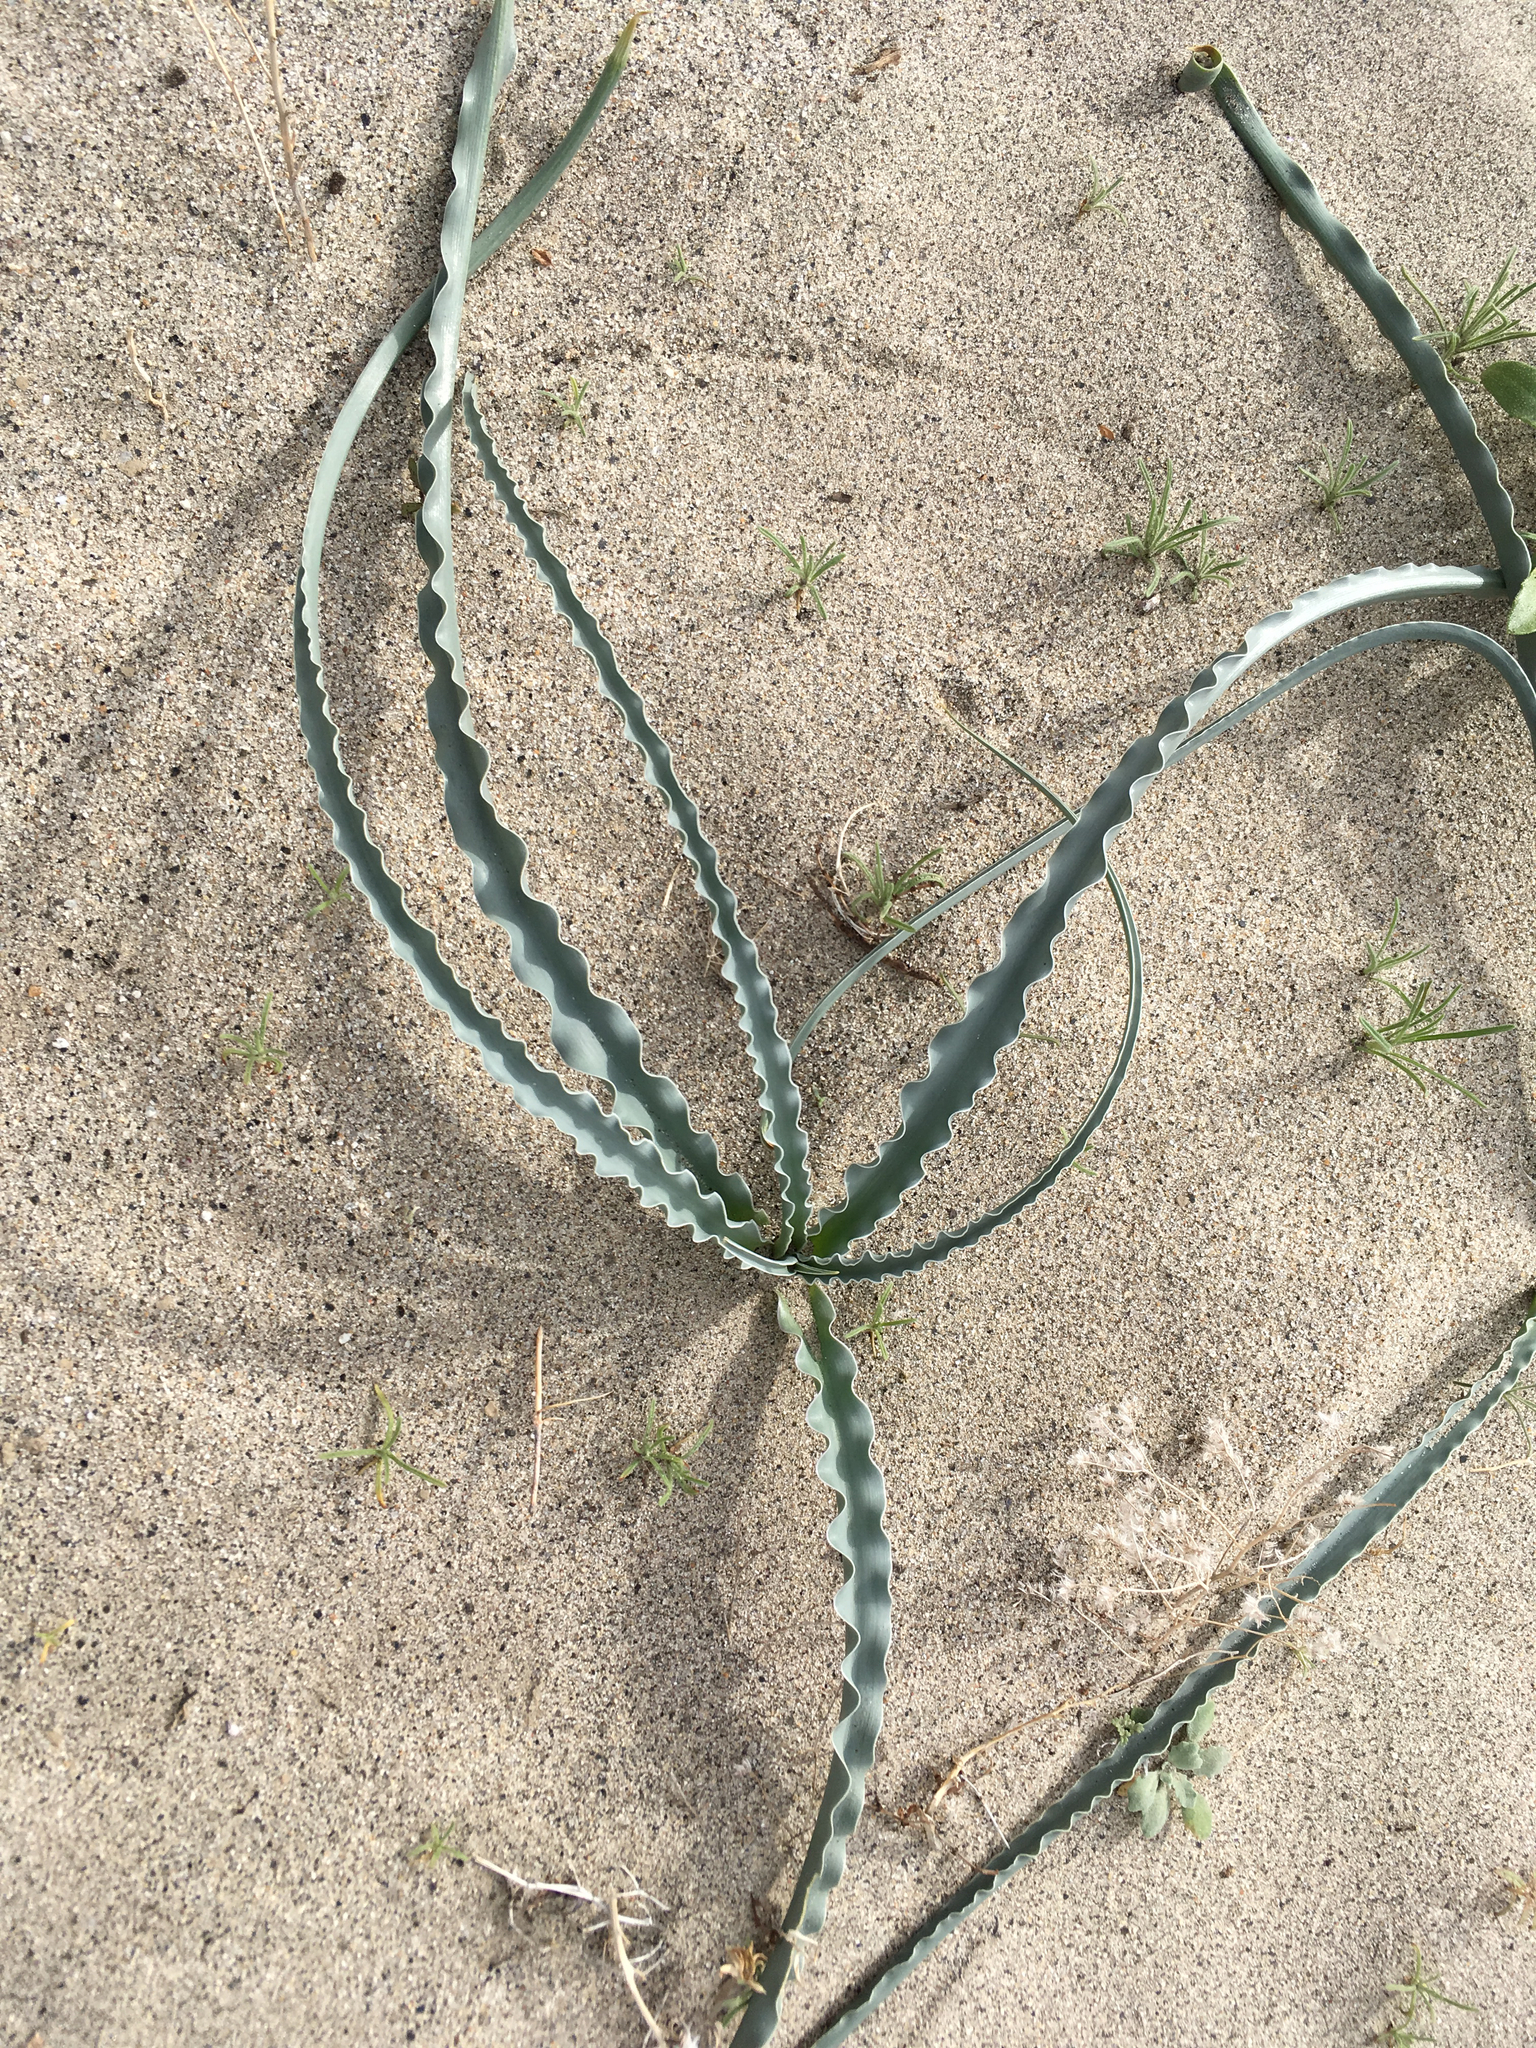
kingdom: Plantae
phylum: Tracheophyta
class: Liliopsida
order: Asparagales
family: Asparagaceae
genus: Hesperocallis
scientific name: Hesperocallis undulata
